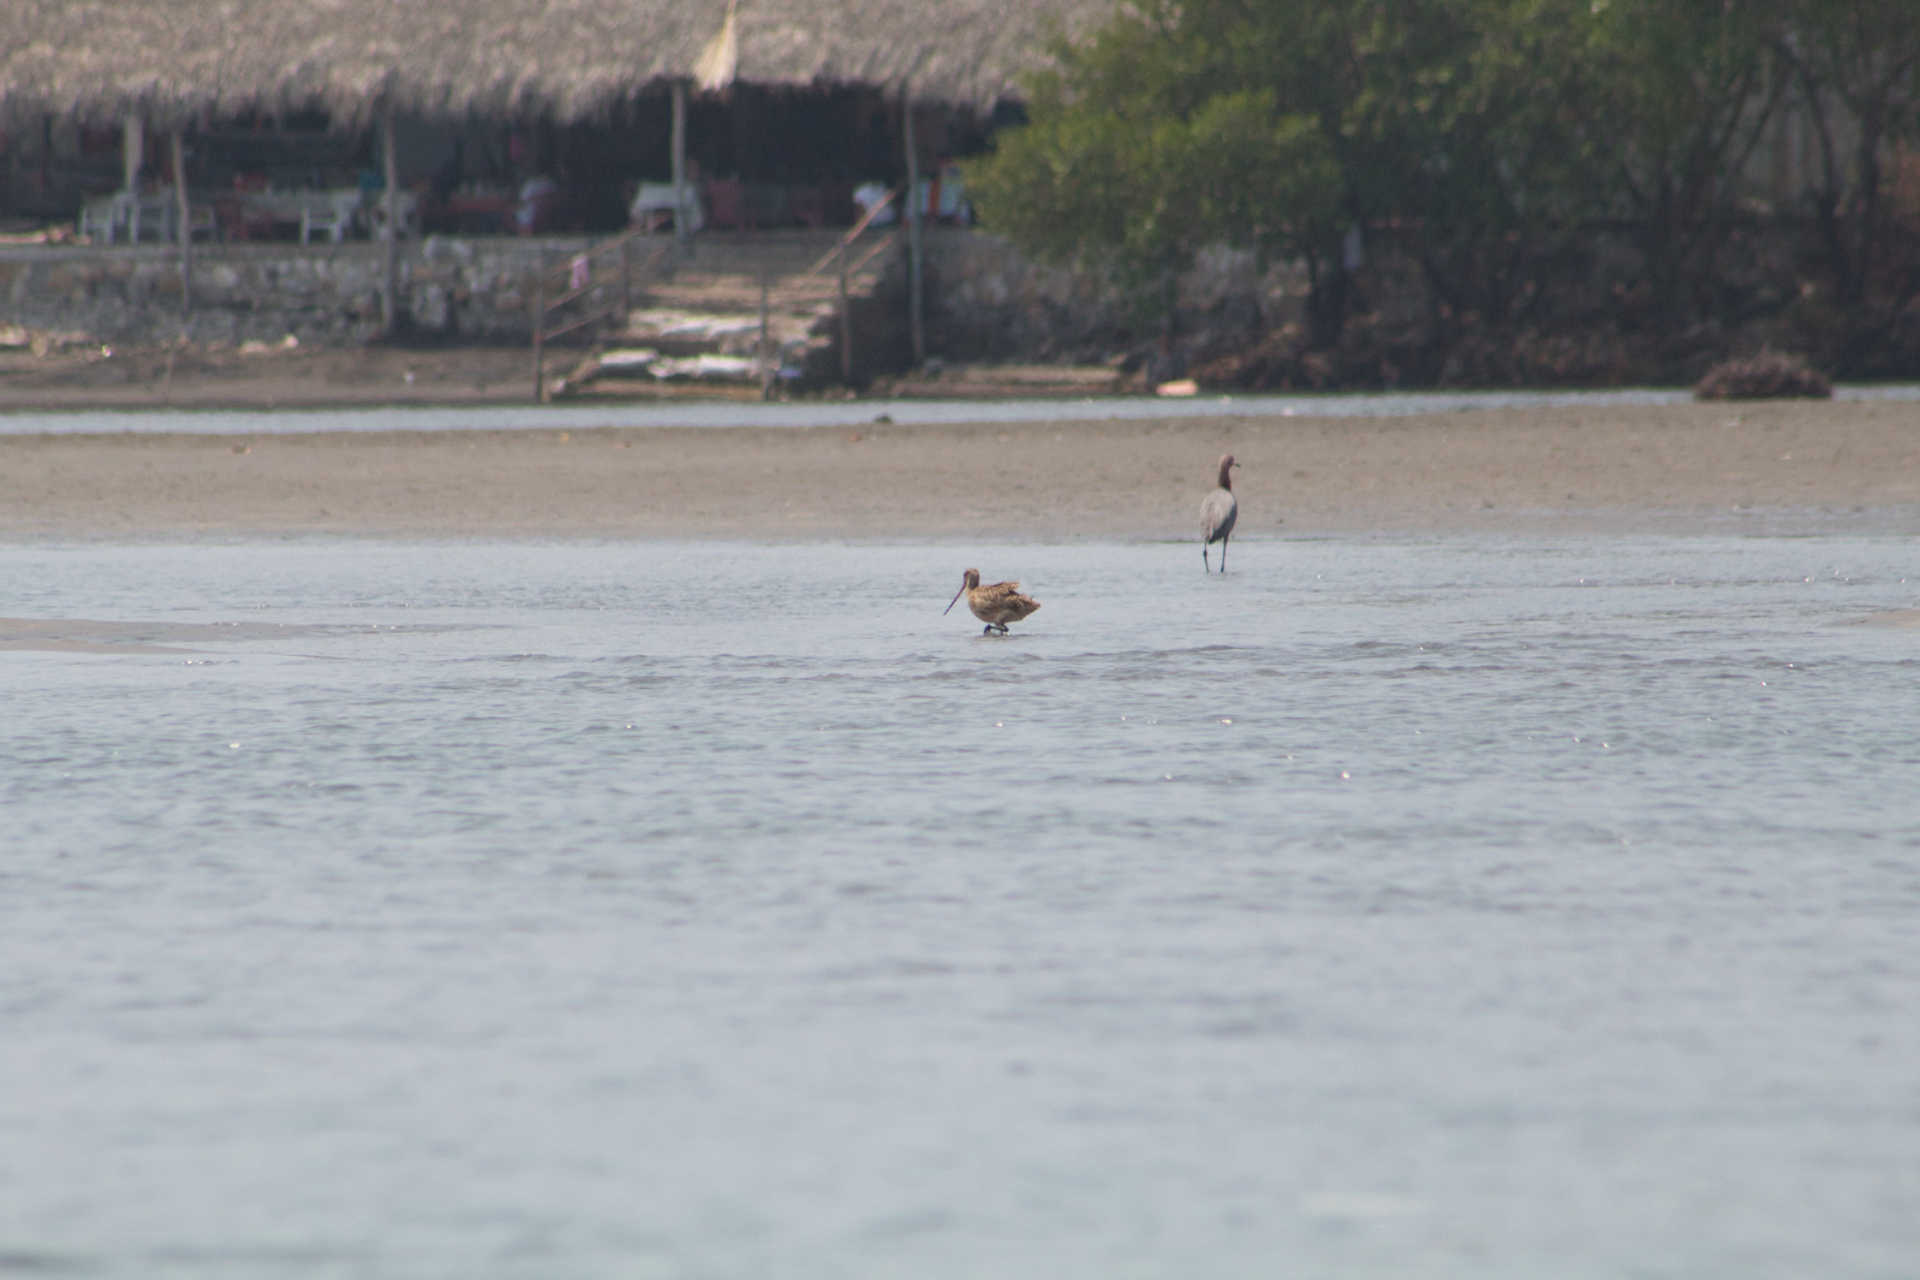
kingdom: Animalia
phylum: Chordata
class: Aves
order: Charadriiformes
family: Scolopacidae
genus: Limosa
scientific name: Limosa fedoa
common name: Marbled godwit
